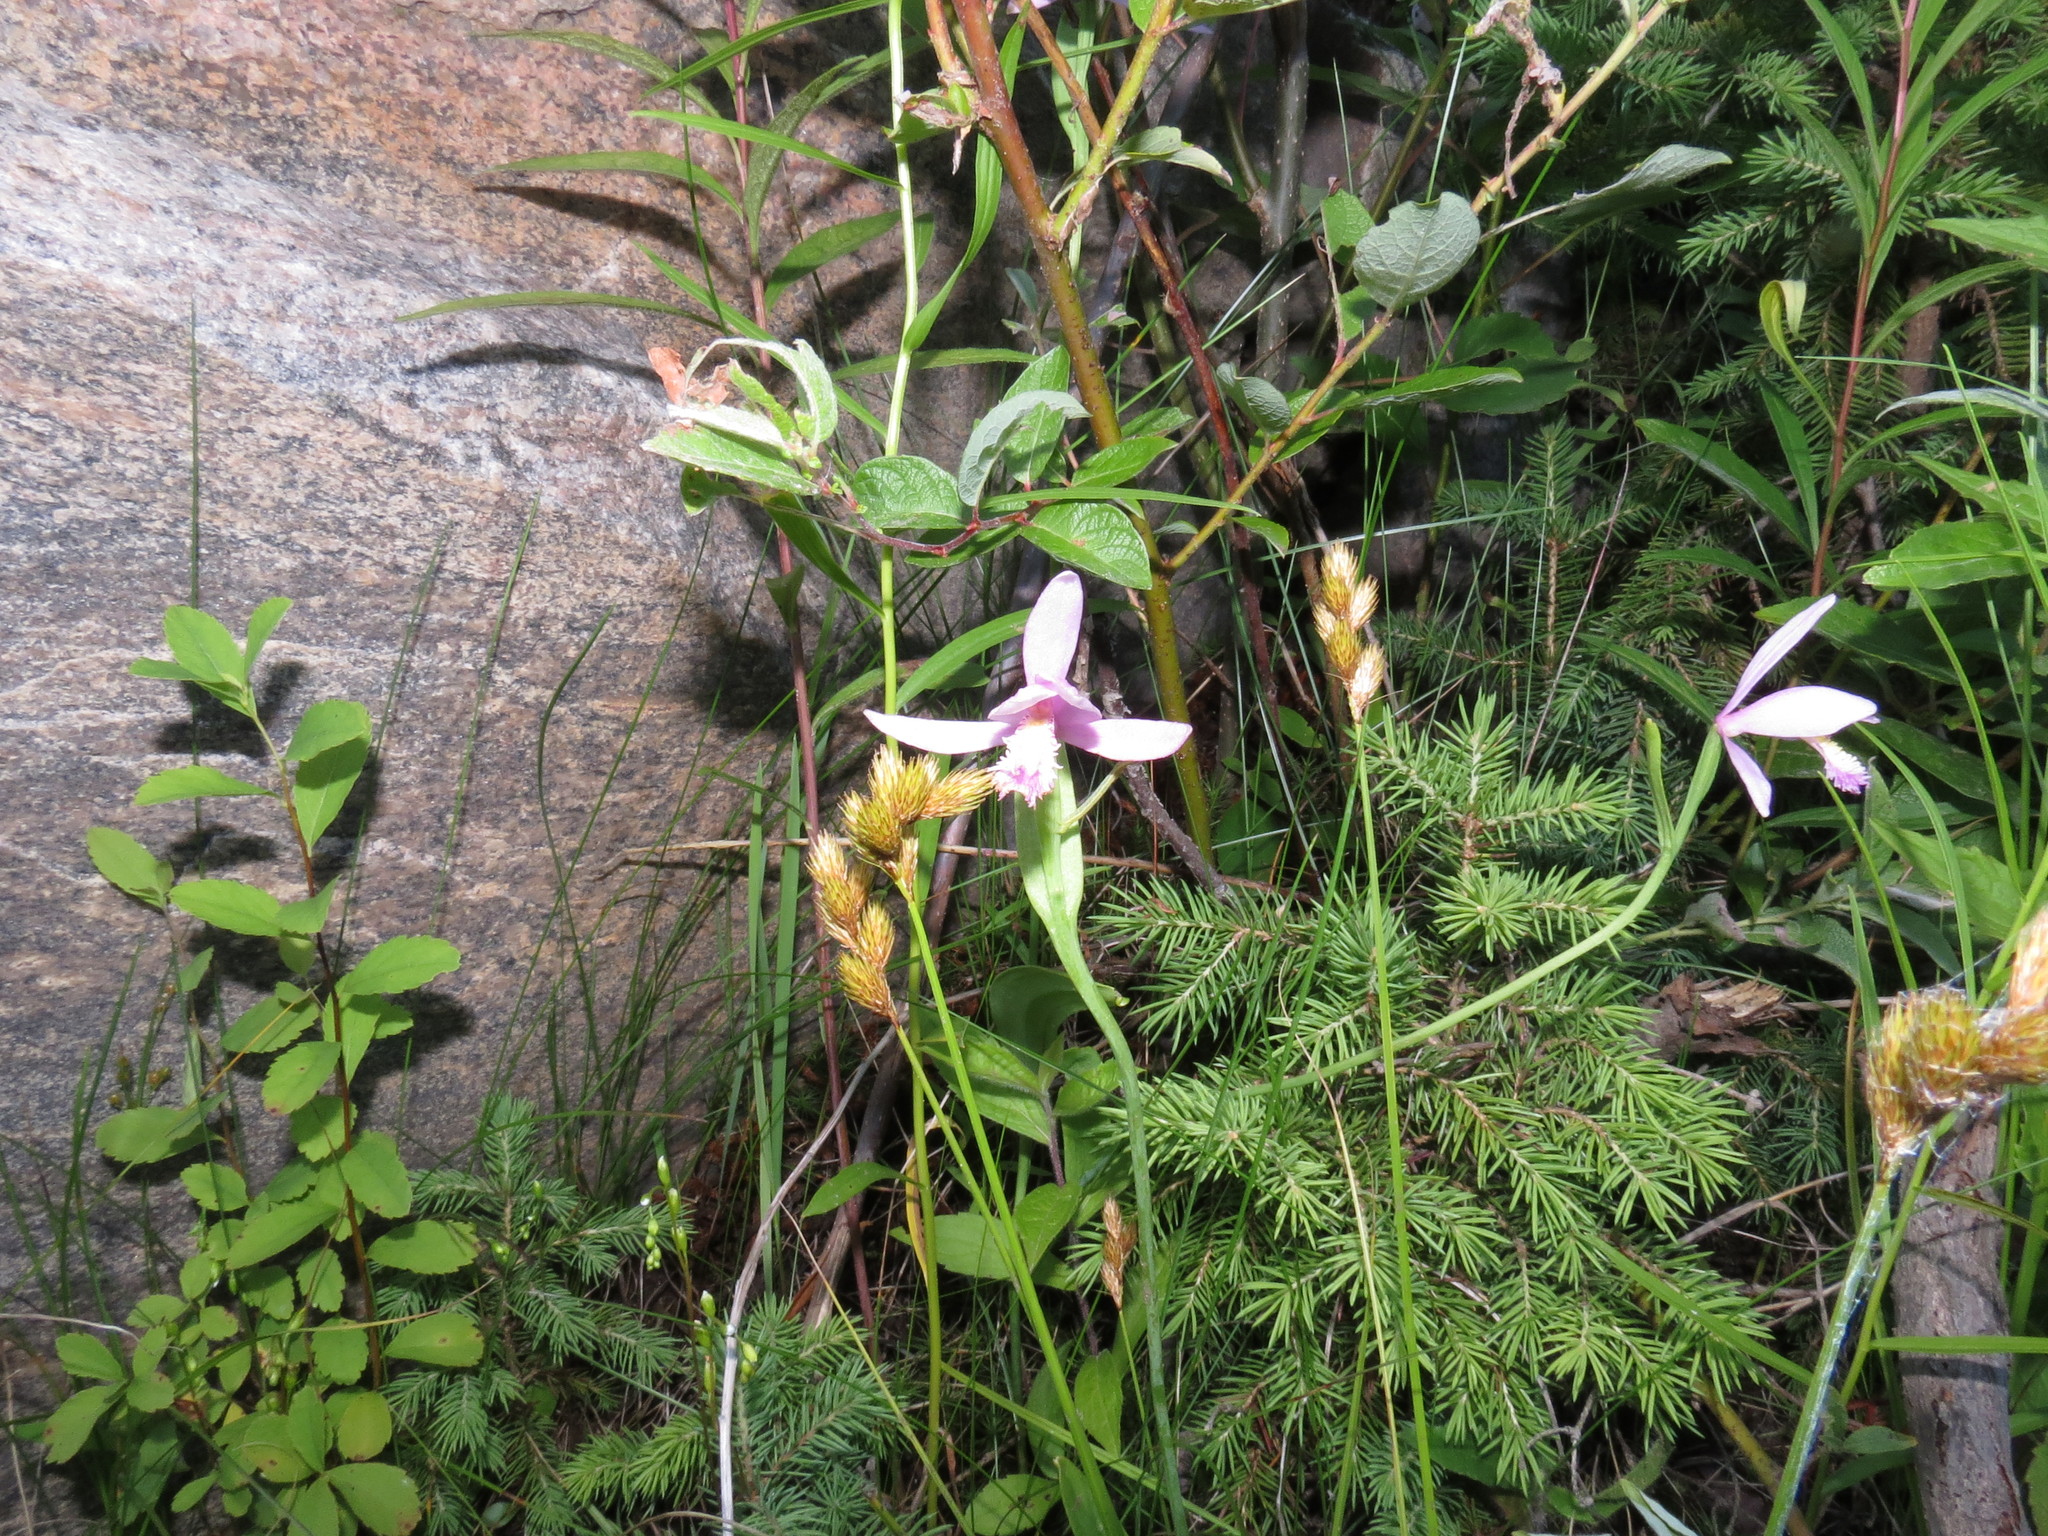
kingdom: Plantae
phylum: Tracheophyta
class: Liliopsida
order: Asparagales
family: Orchidaceae
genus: Pogonia
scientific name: Pogonia ophioglossoides
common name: Rose pogonia
